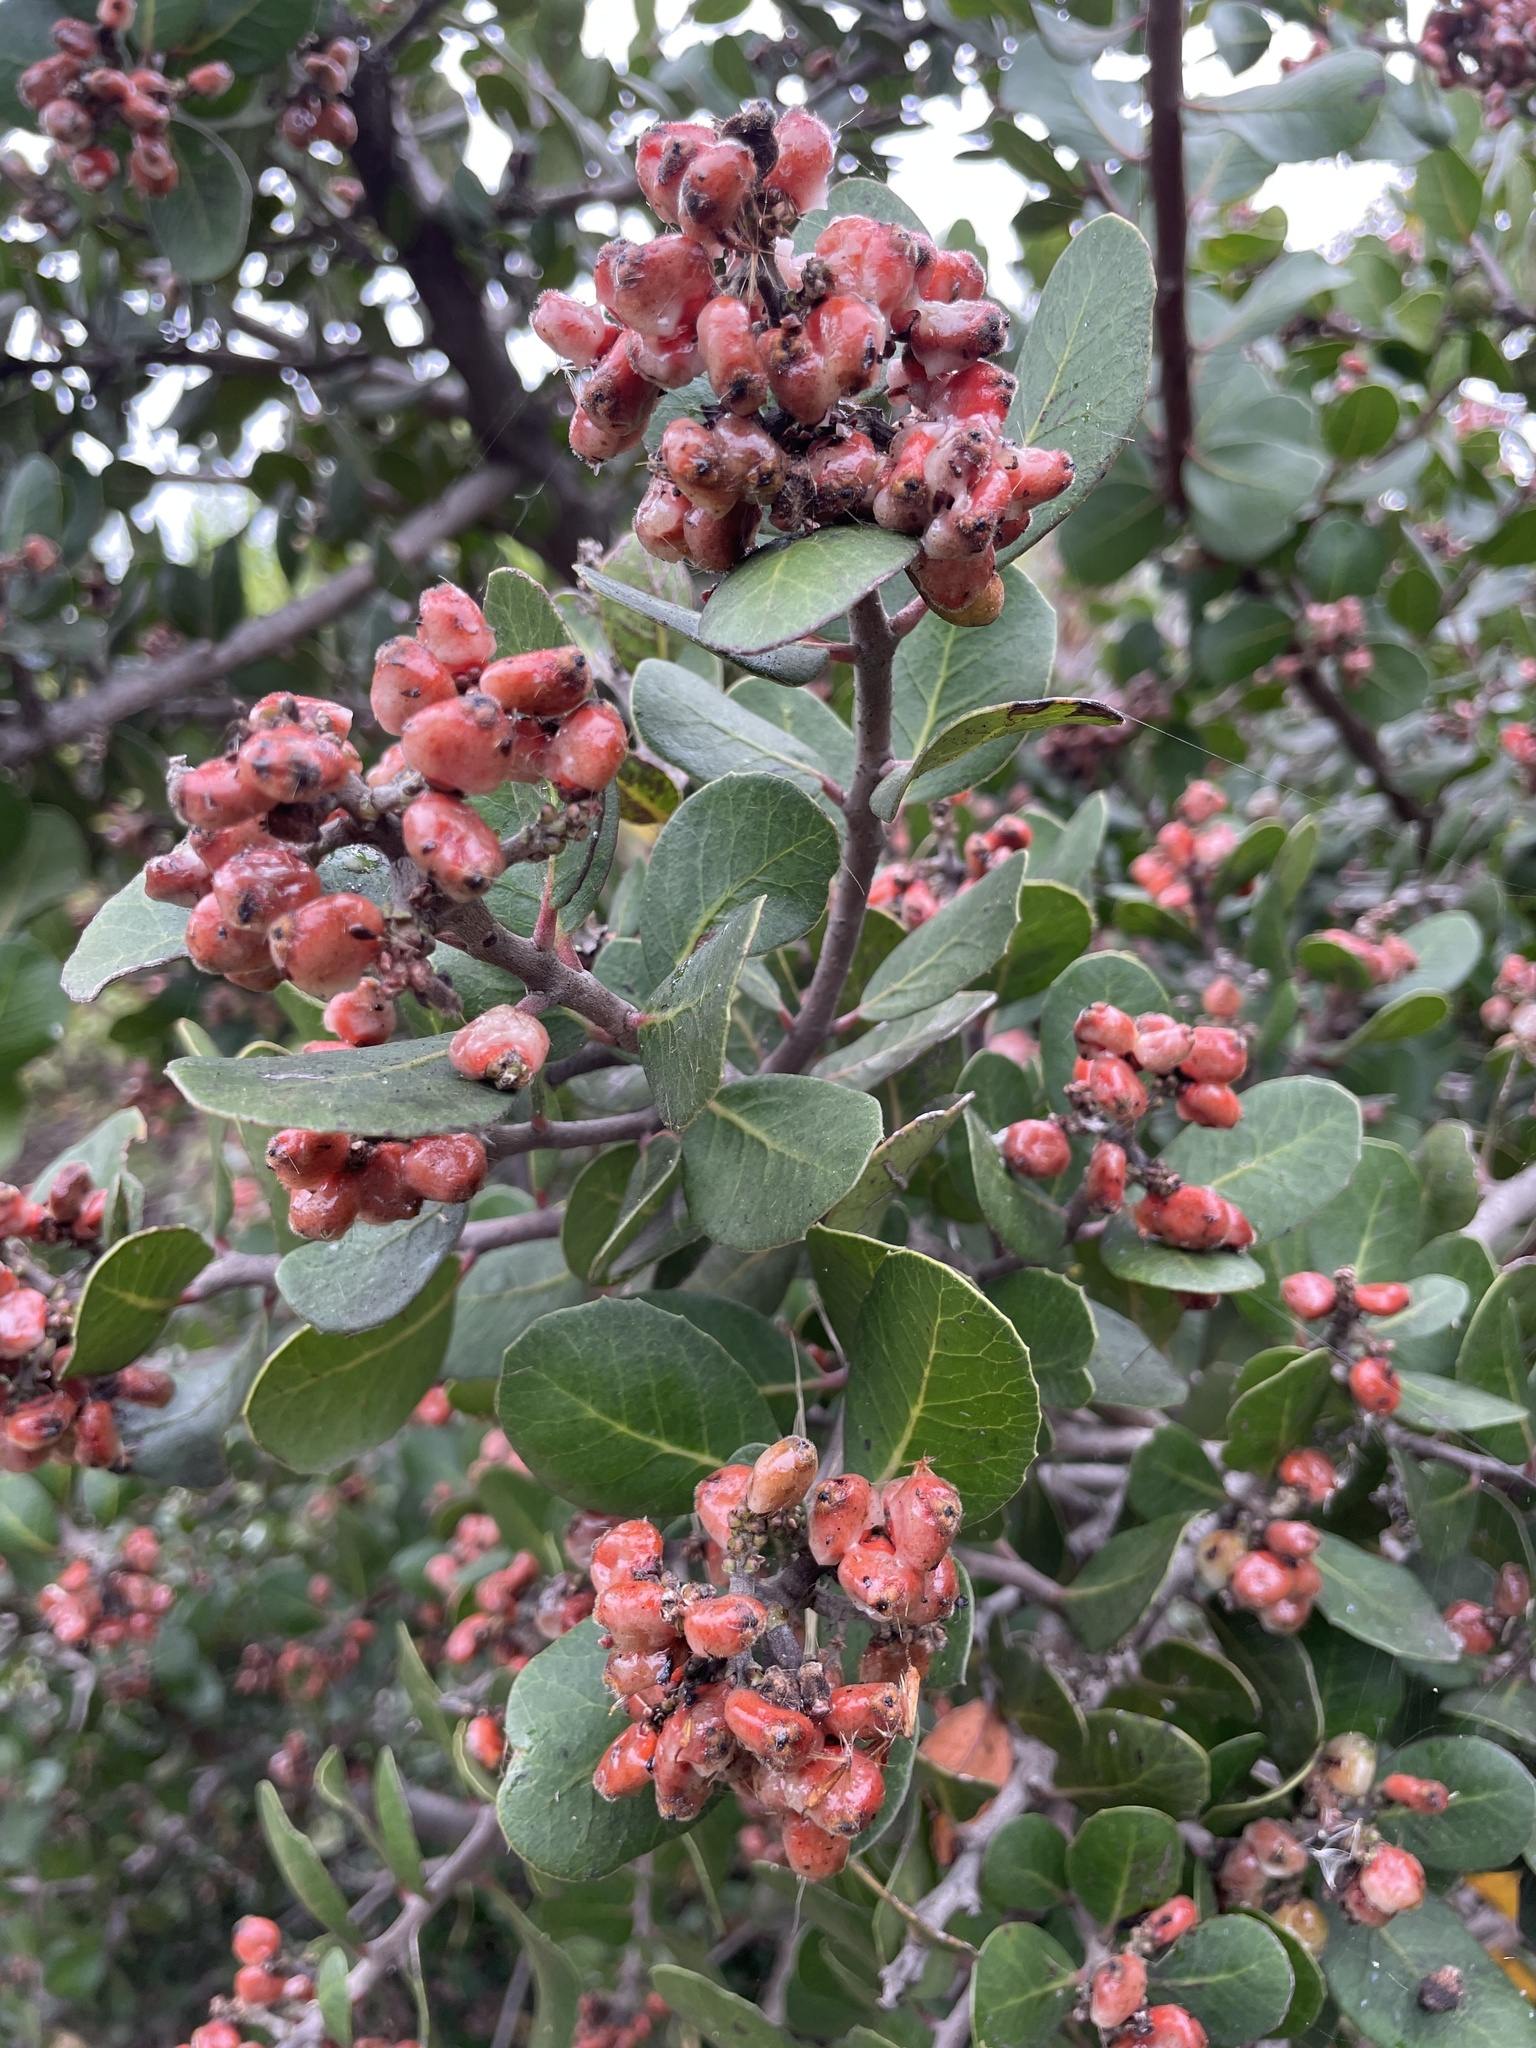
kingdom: Plantae
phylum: Tracheophyta
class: Magnoliopsida
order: Sapindales
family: Anacardiaceae
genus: Rhus
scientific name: Rhus integrifolia
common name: Lemonade sumac
